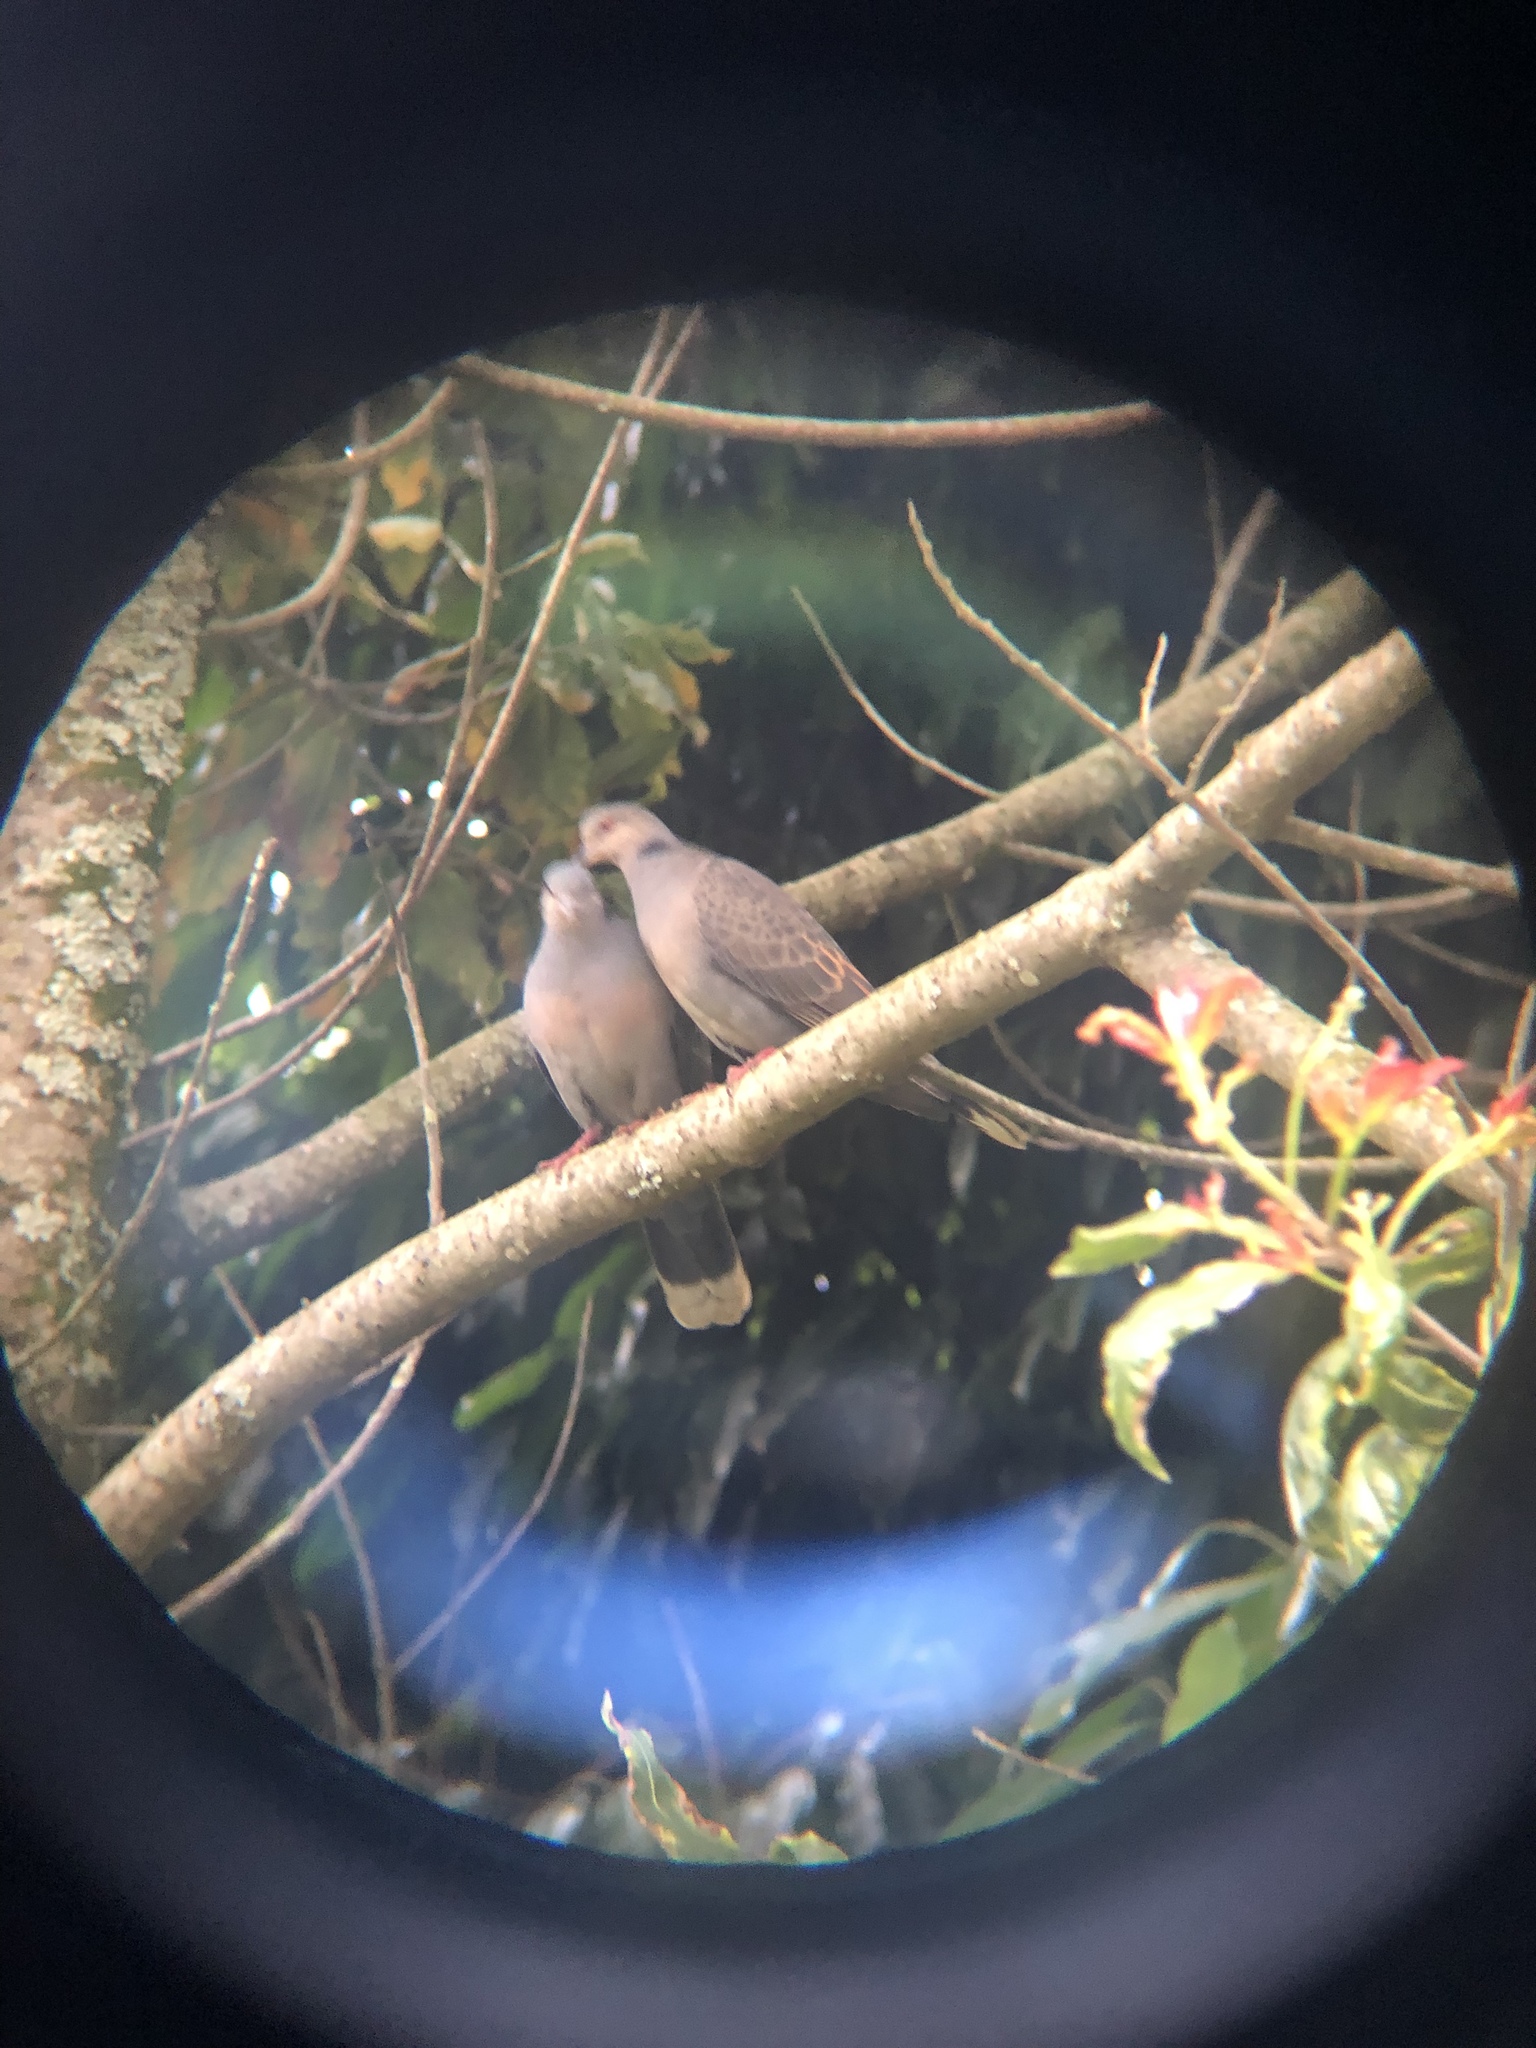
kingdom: Animalia
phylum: Chordata
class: Aves
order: Columbiformes
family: Columbidae
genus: Streptopelia
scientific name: Streptopelia lugens
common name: Dusky turtle dove
